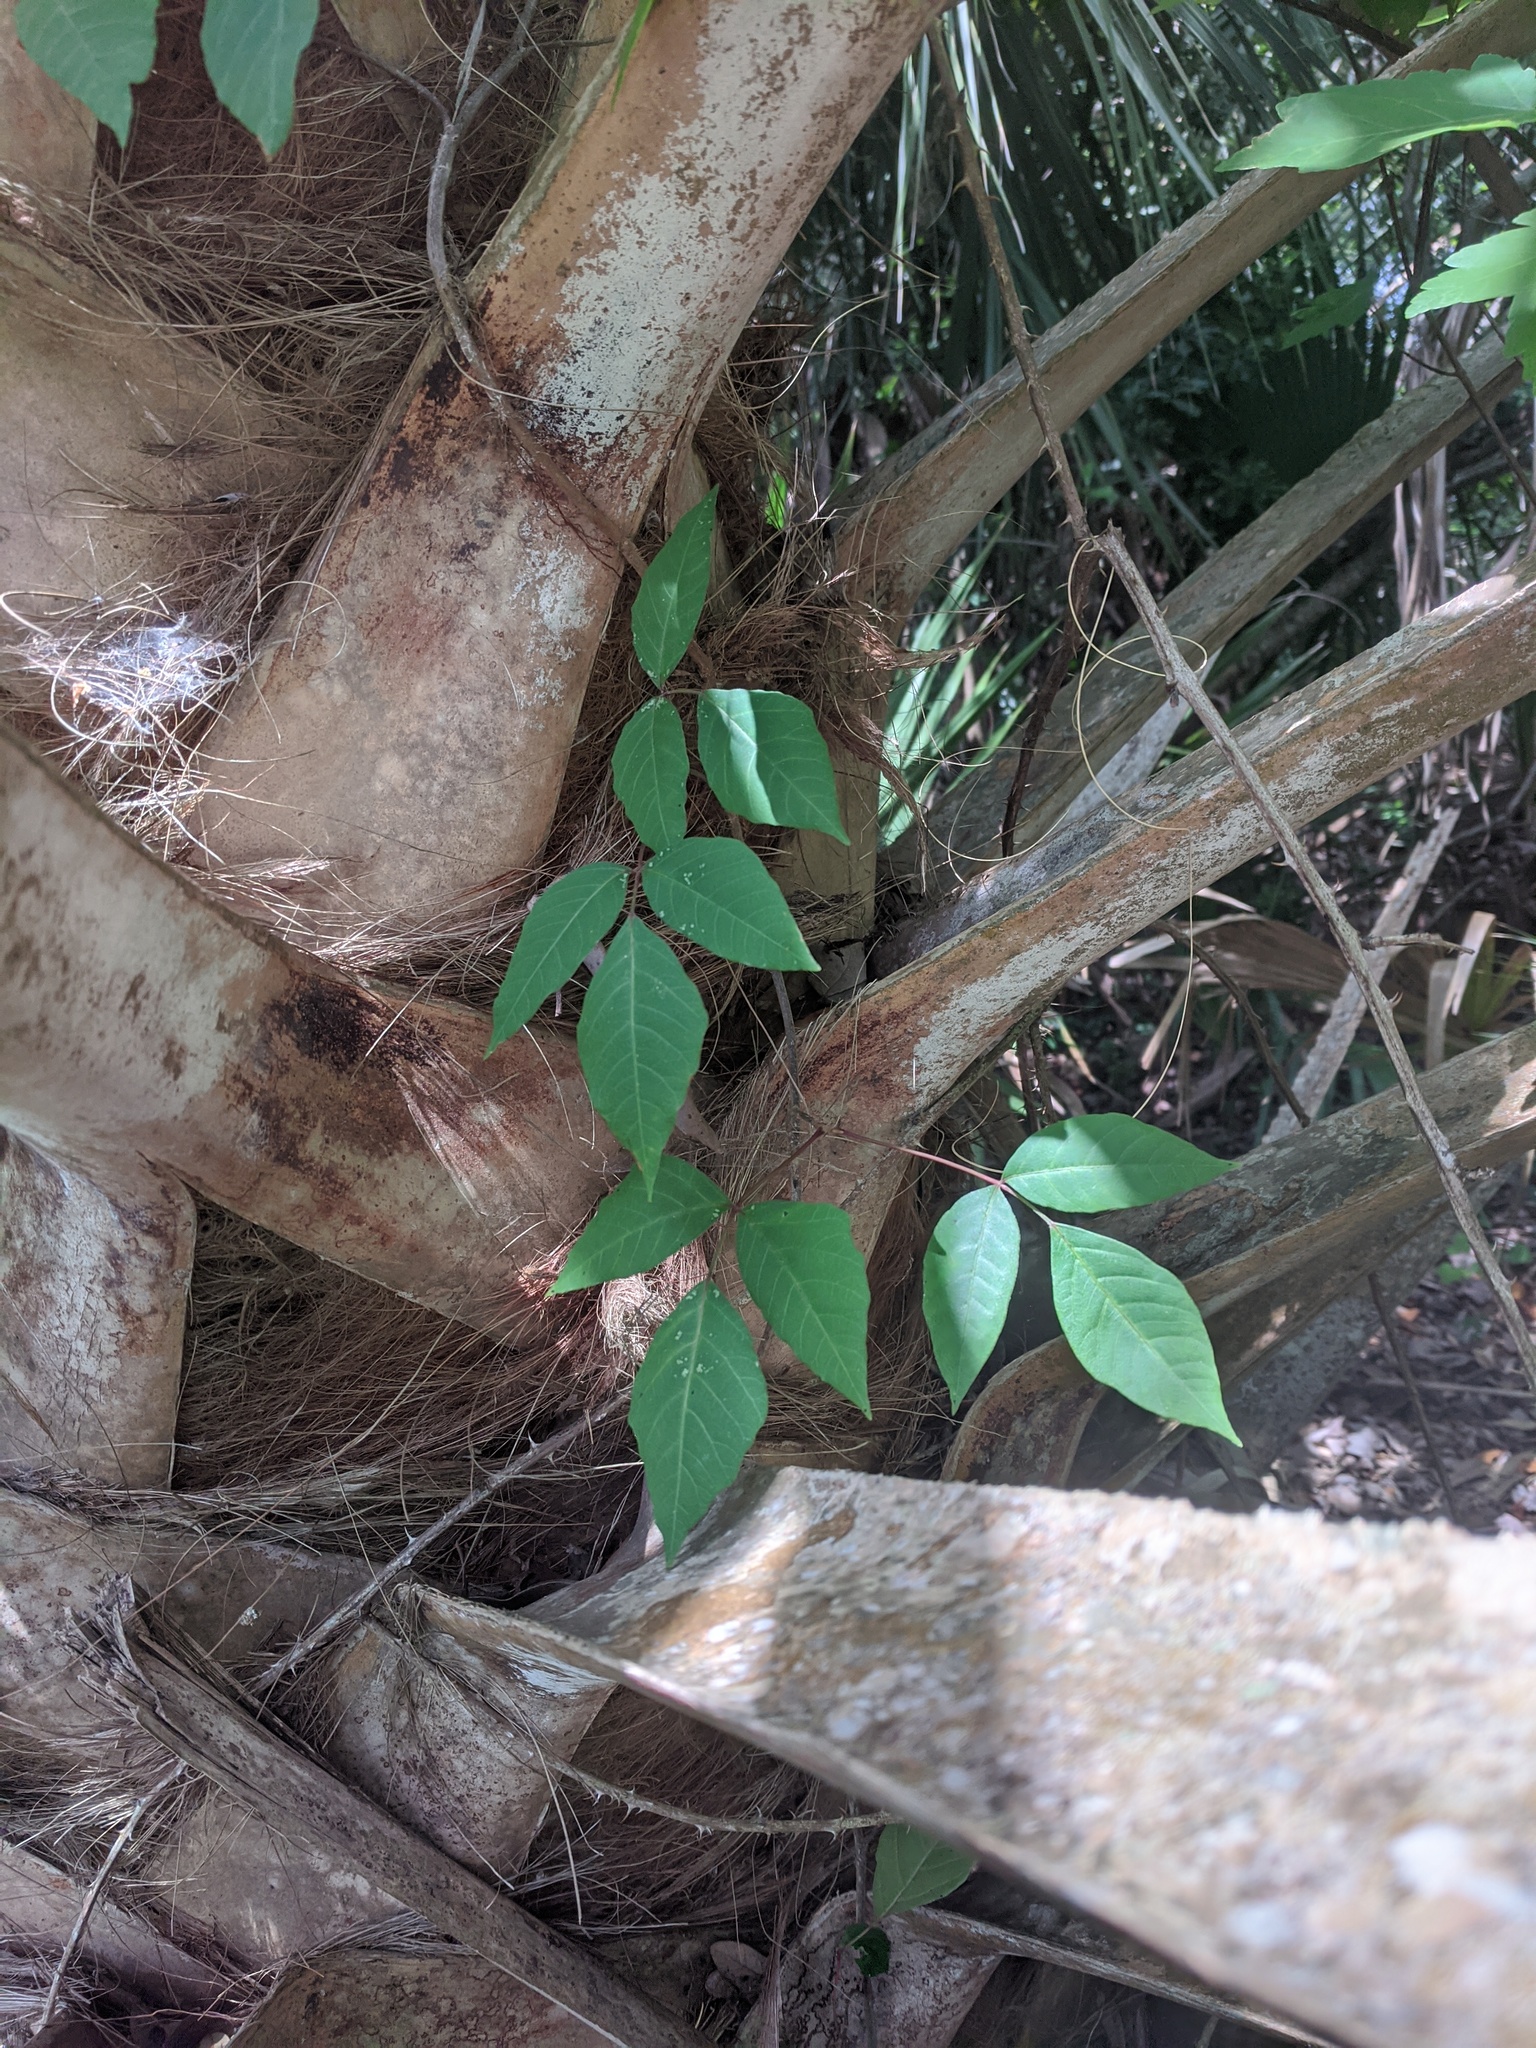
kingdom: Plantae
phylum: Tracheophyta
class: Magnoliopsida
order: Sapindales
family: Anacardiaceae
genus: Toxicodendron
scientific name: Toxicodendron radicans
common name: Poison ivy
